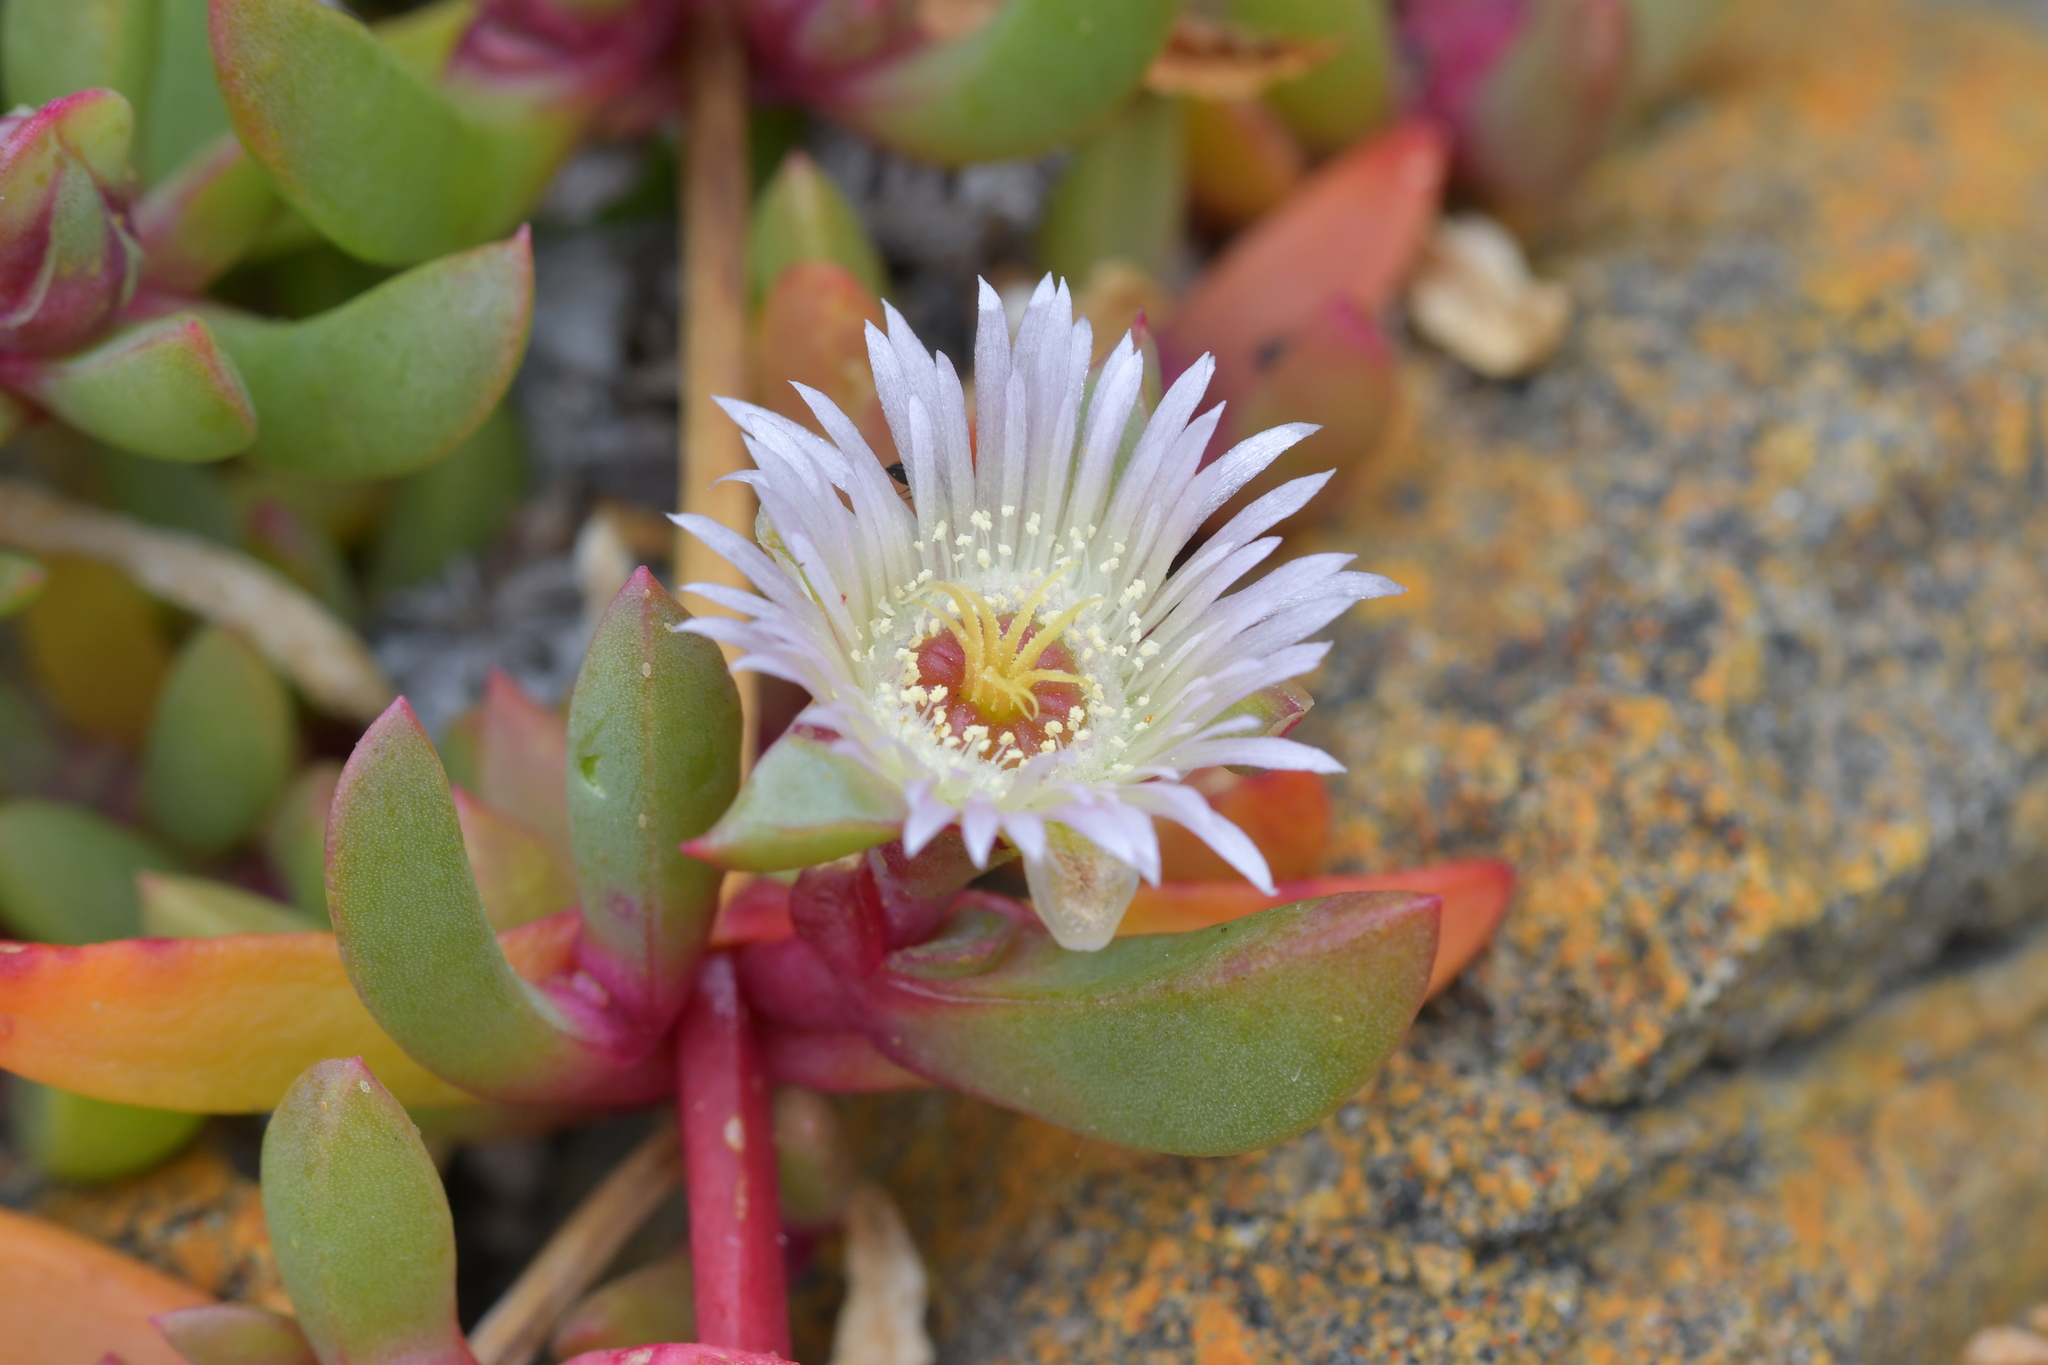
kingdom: Plantae
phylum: Tracheophyta
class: Magnoliopsida
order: Caryophyllales
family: Aizoaceae
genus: Disphyma
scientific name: Disphyma australe
